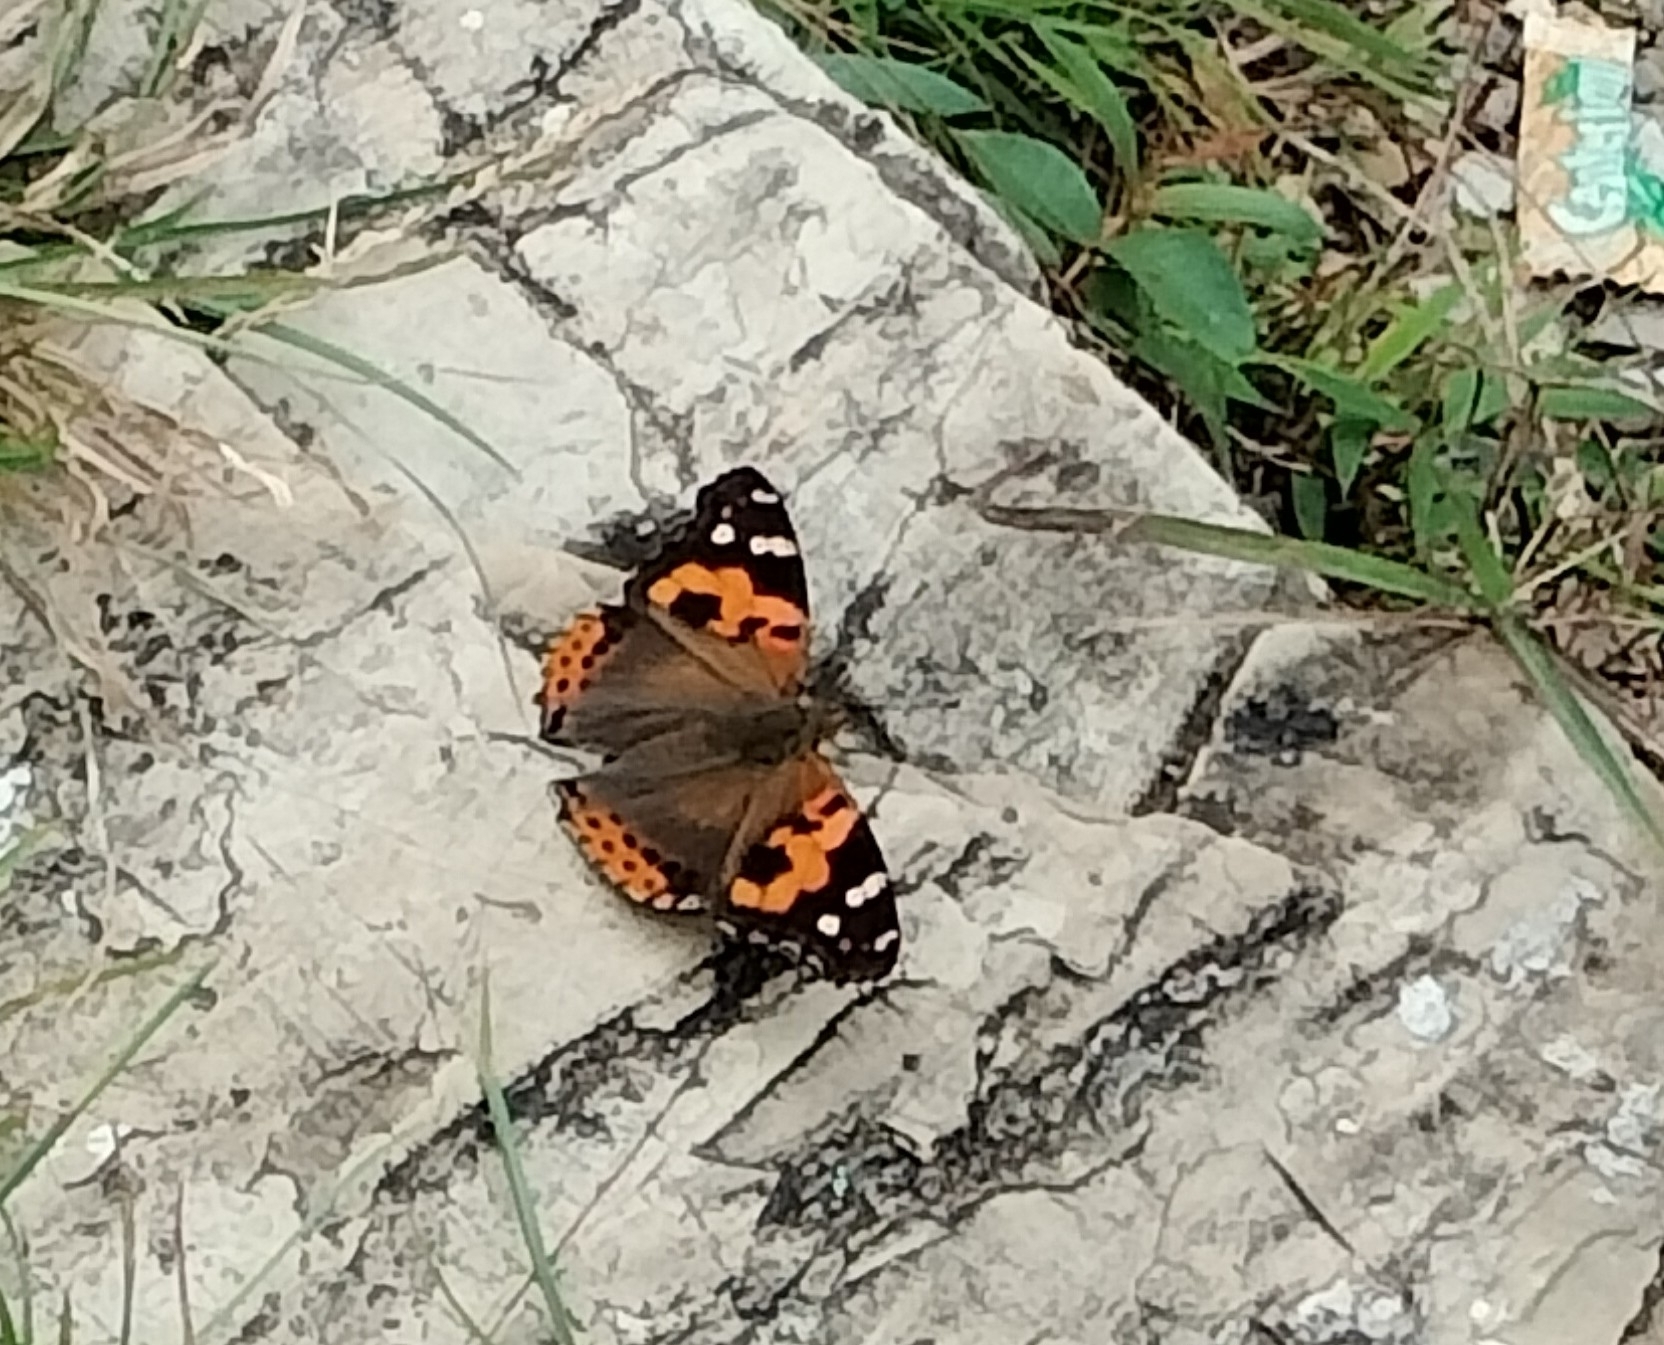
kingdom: Animalia
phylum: Arthropoda
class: Insecta
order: Lepidoptera
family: Nymphalidae
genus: Vanessa
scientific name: Vanessa indica
